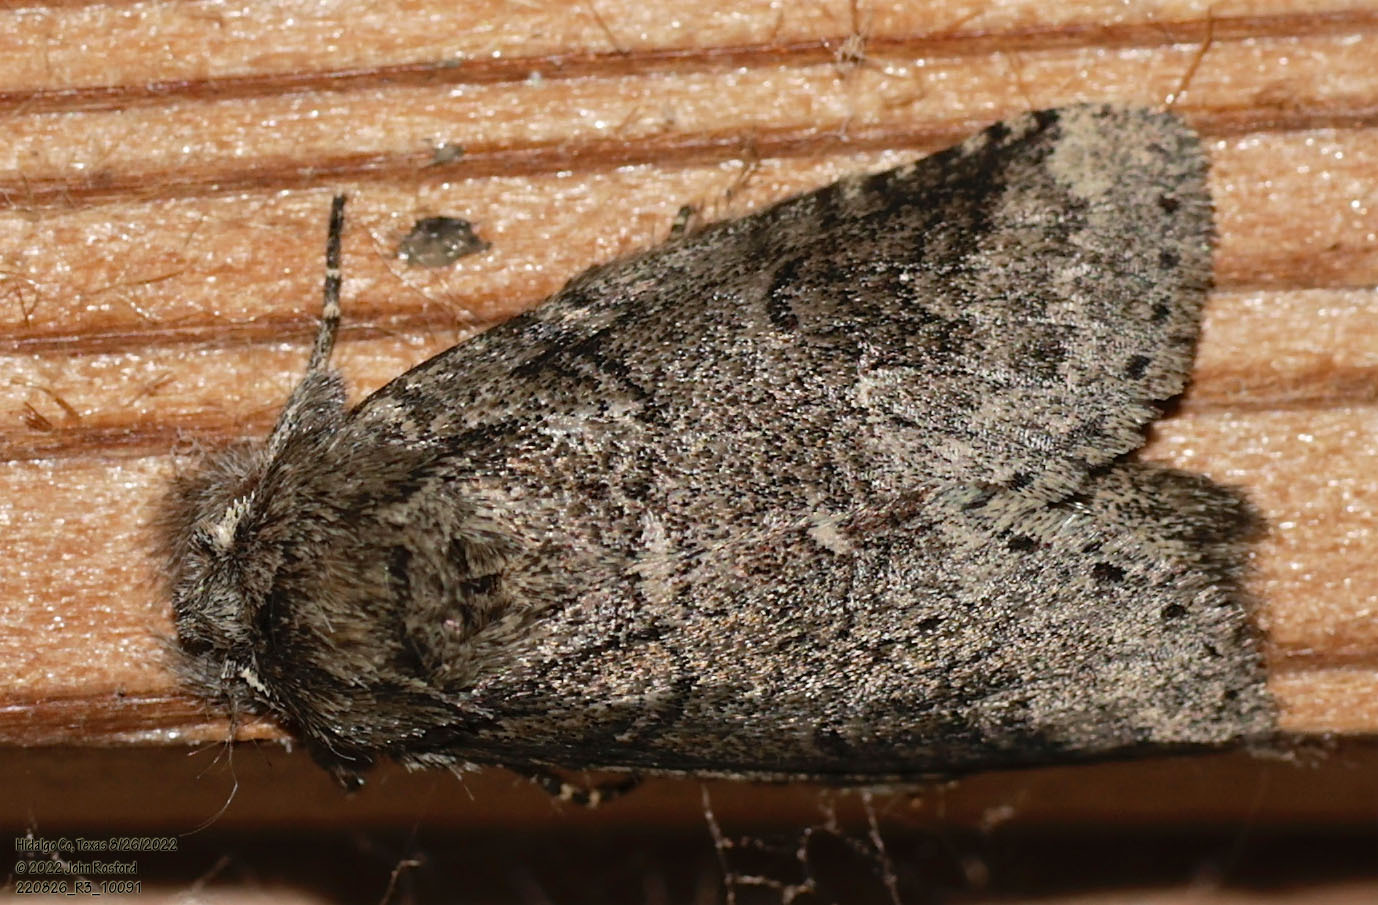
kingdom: Animalia
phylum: Arthropoda
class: Insecta
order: Lepidoptera
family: Notodontidae
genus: Lochmaeus
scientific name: Lochmaeus bilineata
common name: Double-lined prominent
